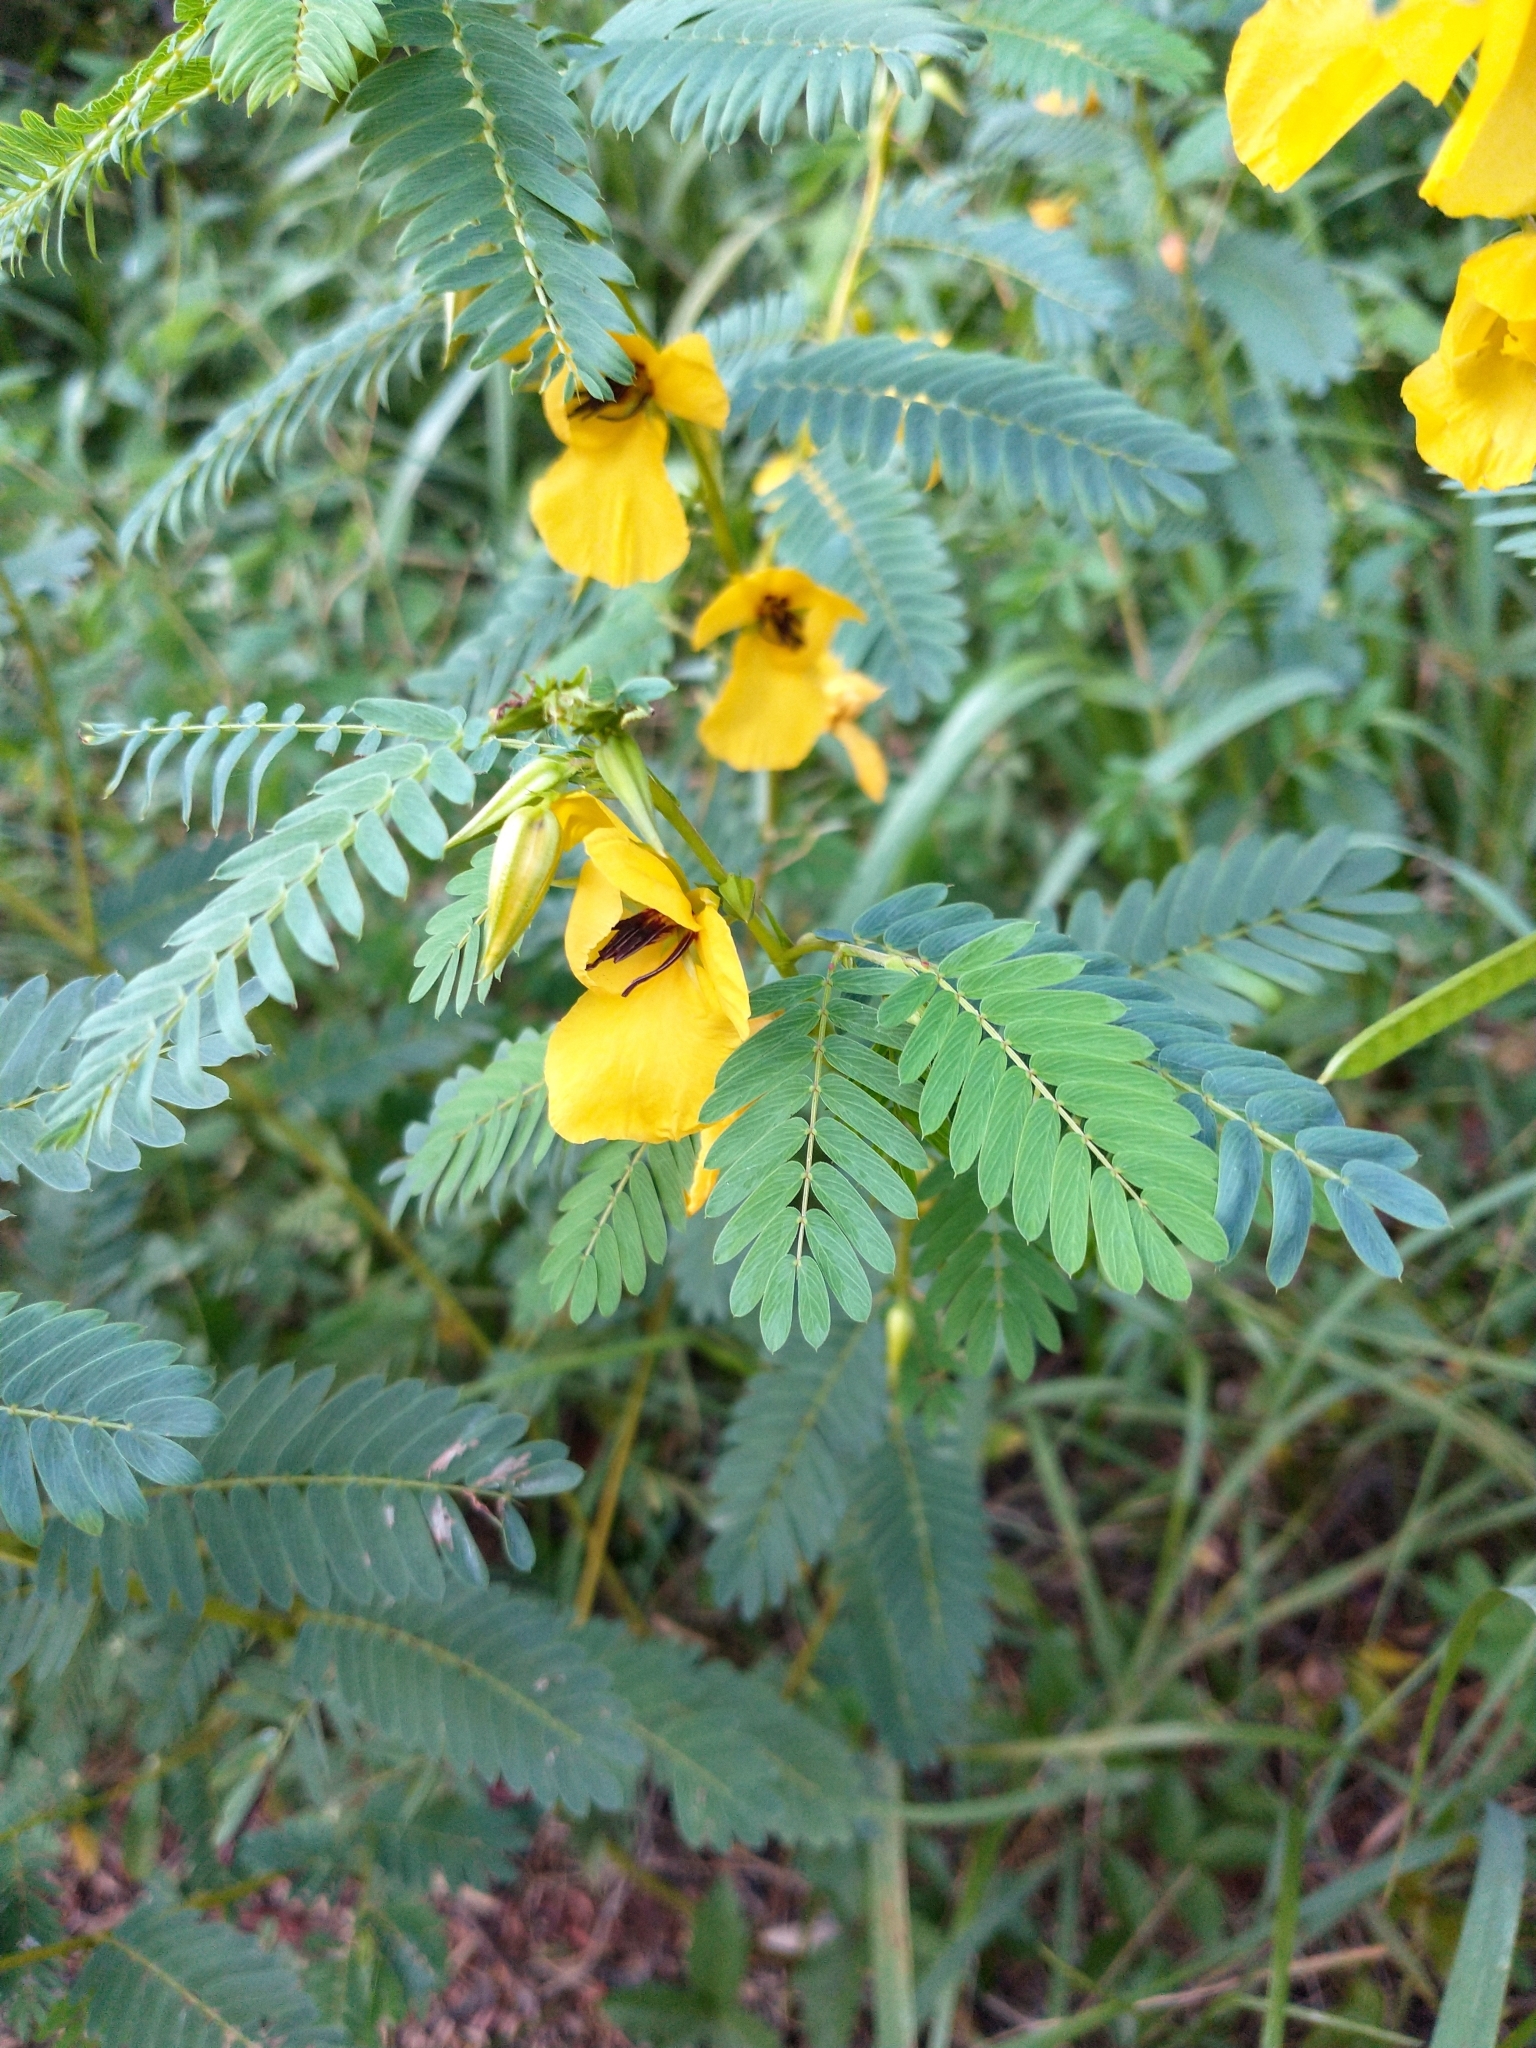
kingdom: Plantae
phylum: Tracheophyta
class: Magnoliopsida
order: Fabales
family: Fabaceae
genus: Chamaecrista
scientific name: Chamaecrista fasciculata
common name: Golden cassia
